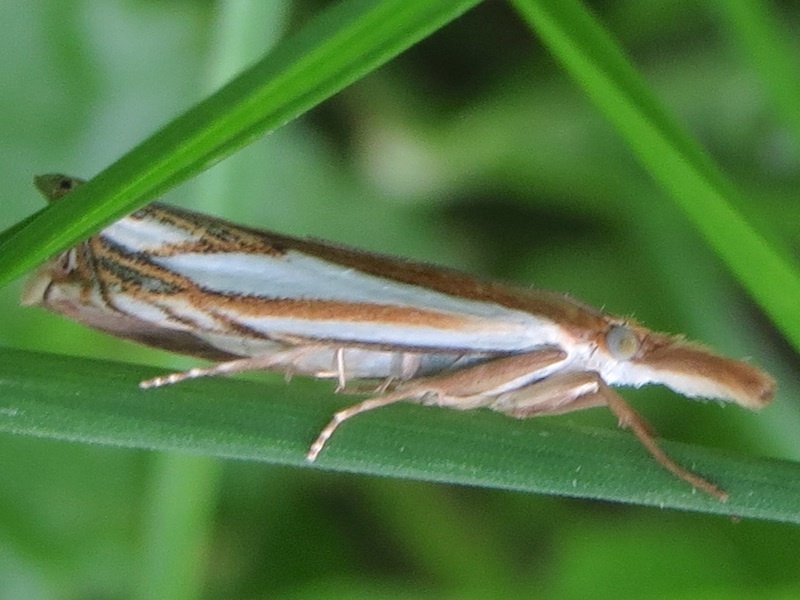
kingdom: Animalia
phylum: Arthropoda
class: Insecta
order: Lepidoptera
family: Crambidae
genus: Crambus
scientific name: Crambus saltuellus
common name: Pasture grass-veneer
